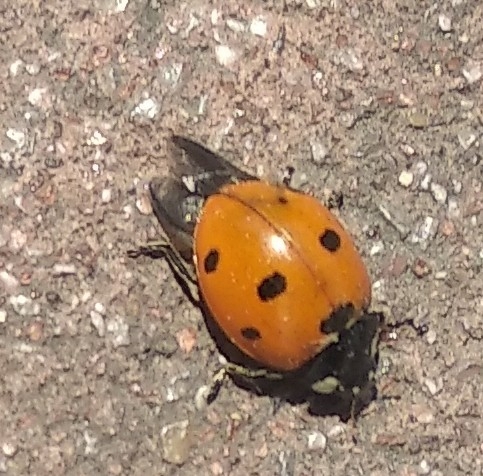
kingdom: Animalia
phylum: Arthropoda
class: Insecta
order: Coleoptera
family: Coccinellidae
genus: Coccinella
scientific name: Coccinella septempunctata
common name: Sevenspotted lady beetle
